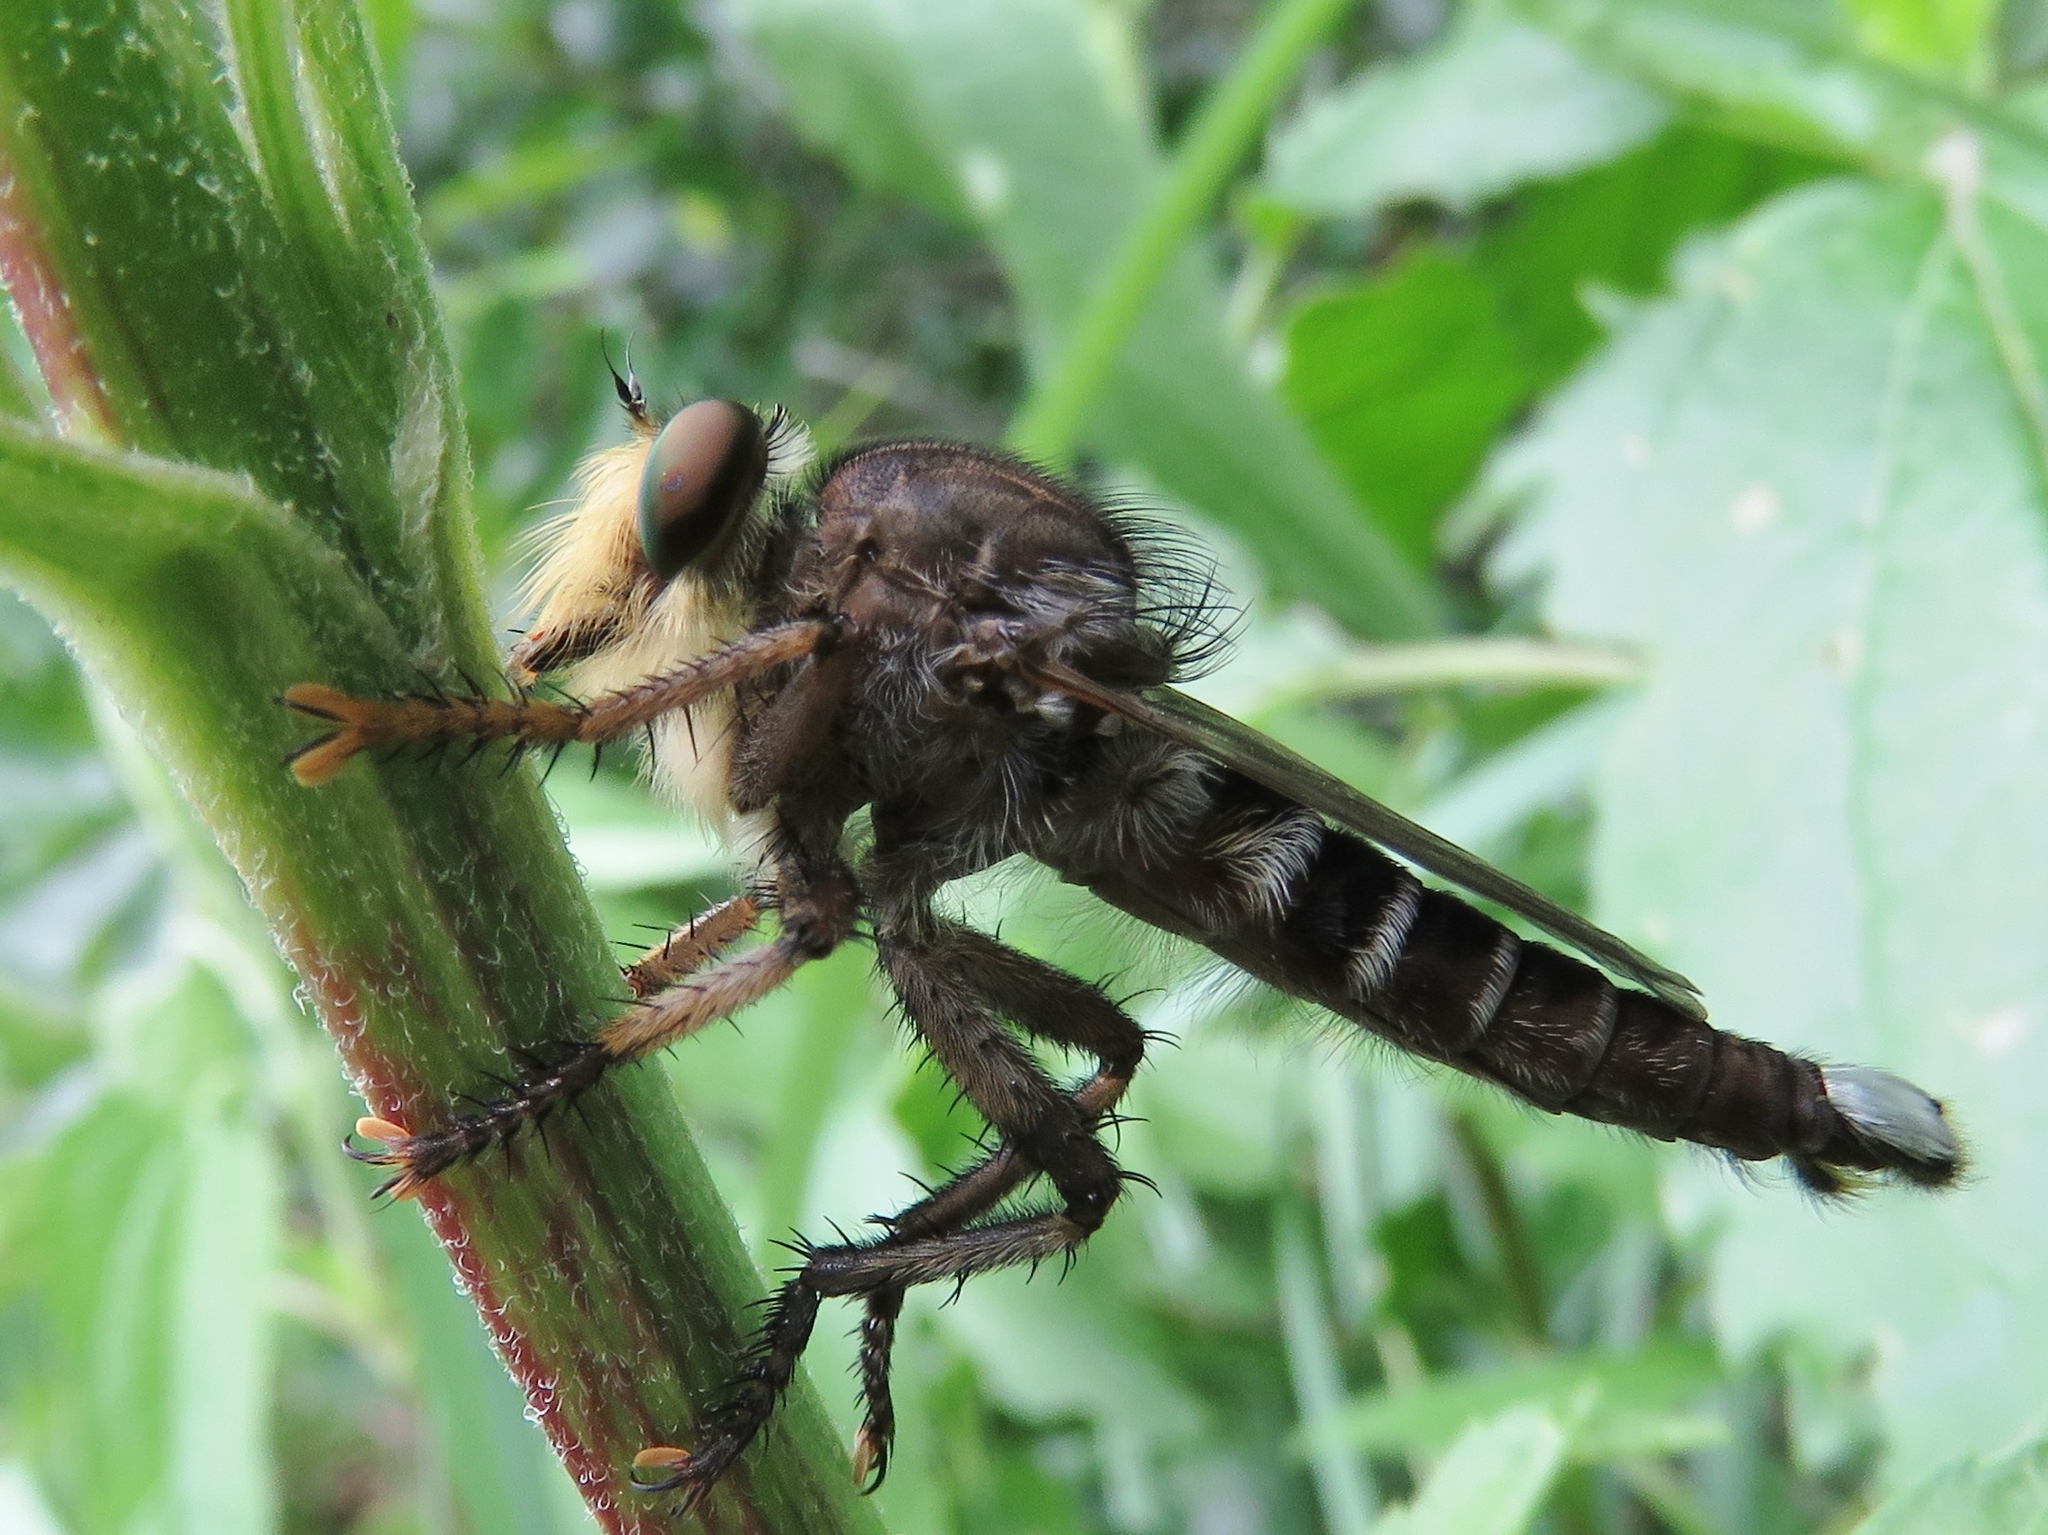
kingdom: Animalia
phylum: Arthropoda
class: Insecta
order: Diptera
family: Asilidae
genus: Promachus
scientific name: Promachus bastardii
